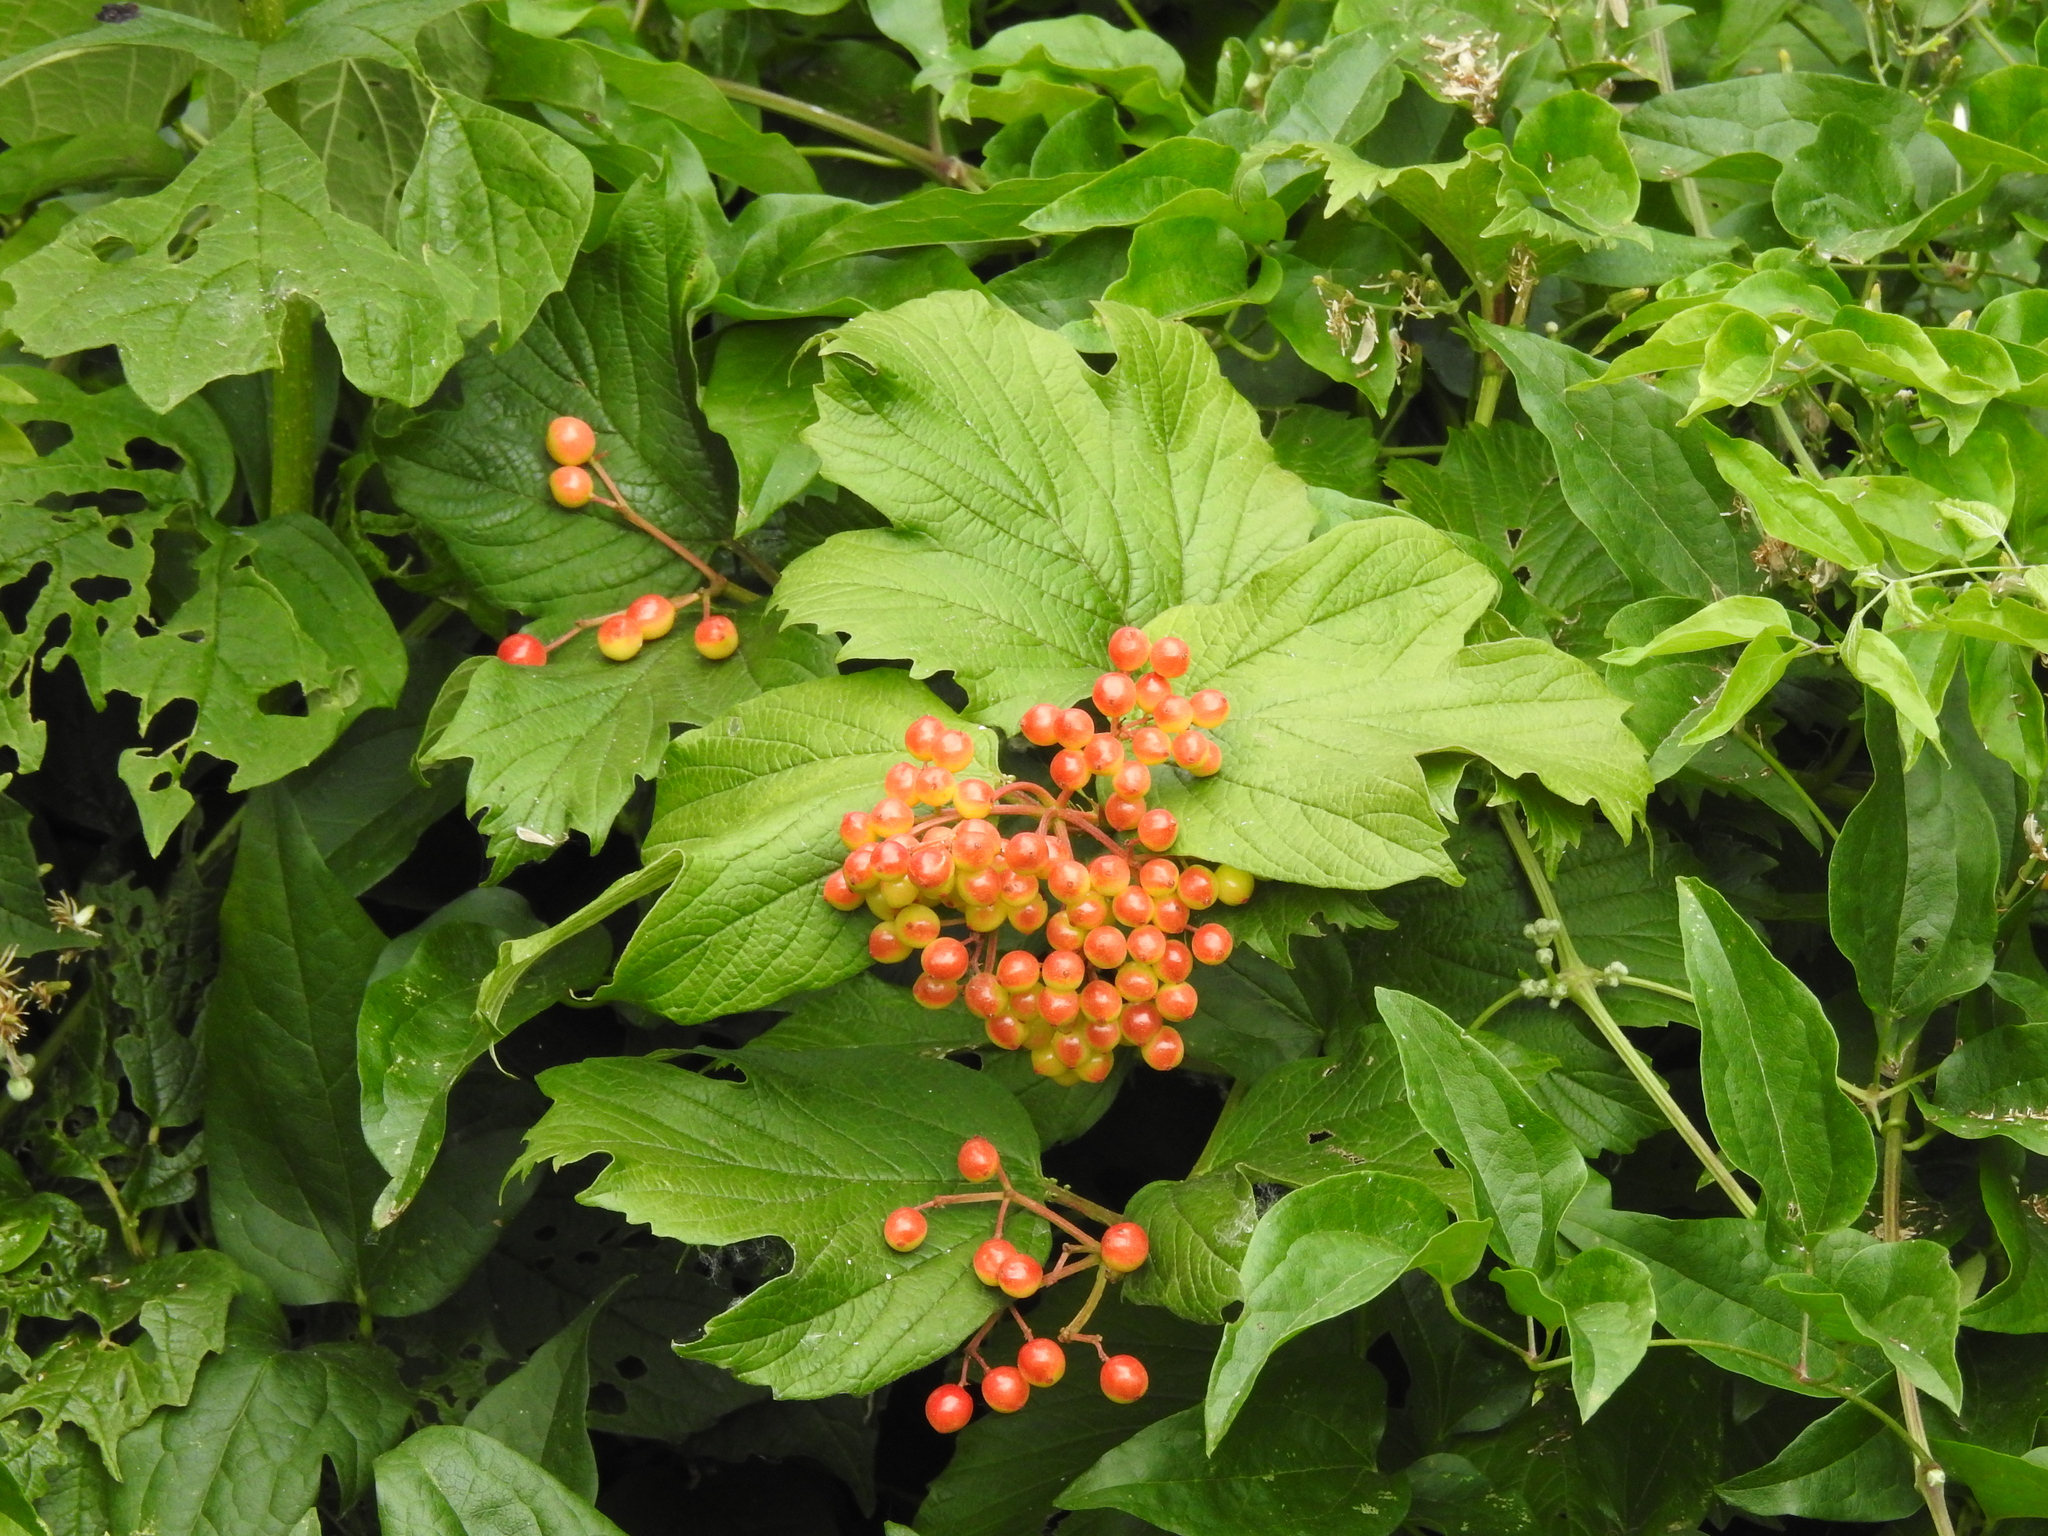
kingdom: Plantae
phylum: Tracheophyta
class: Magnoliopsida
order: Dipsacales
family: Viburnaceae
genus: Viburnum
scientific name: Viburnum opulus
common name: Guelder-rose
